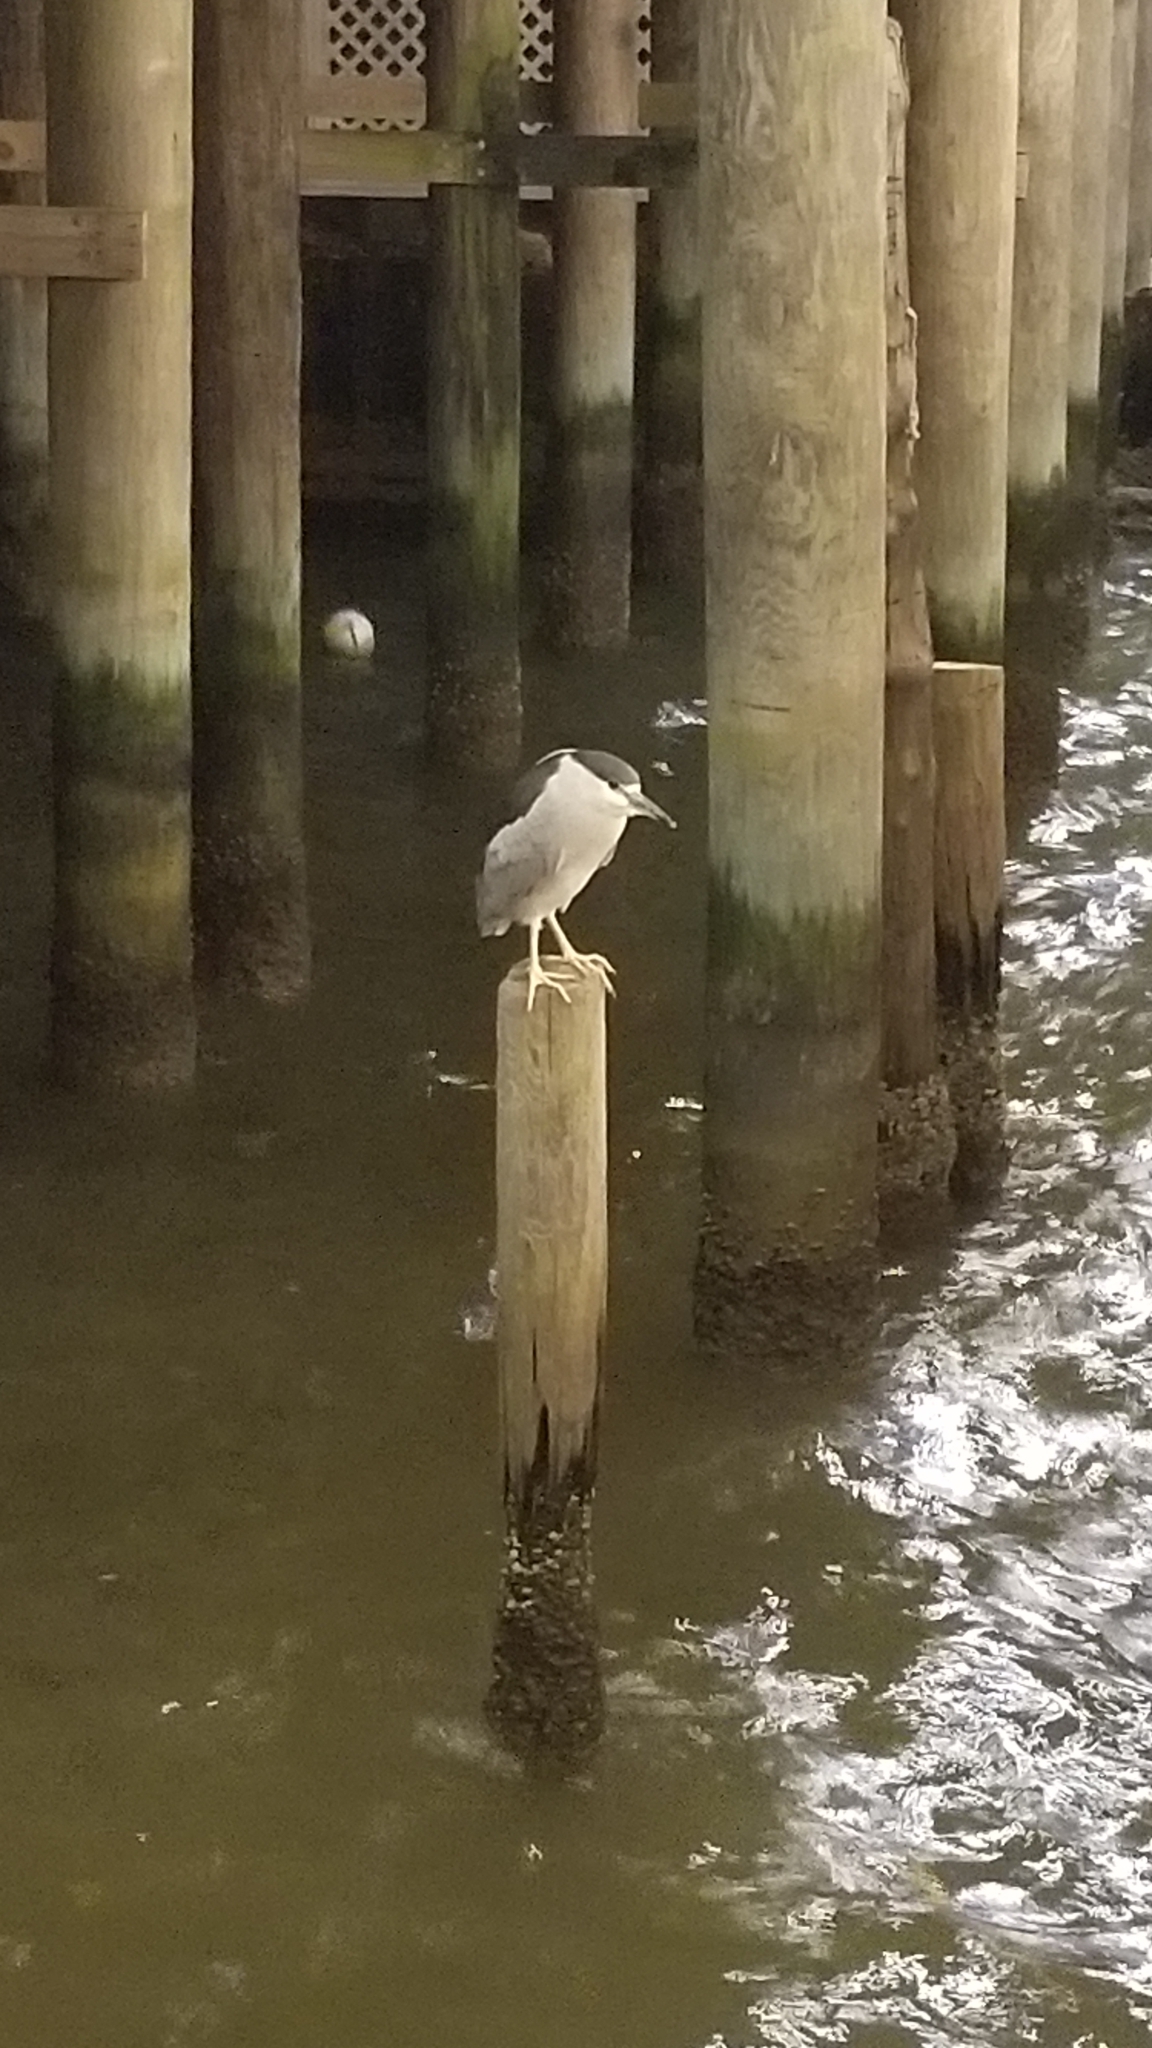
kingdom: Animalia
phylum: Chordata
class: Aves
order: Pelecaniformes
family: Ardeidae
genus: Nycticorax
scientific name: Nycticorax nycticorax
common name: Black-crowned night heron
